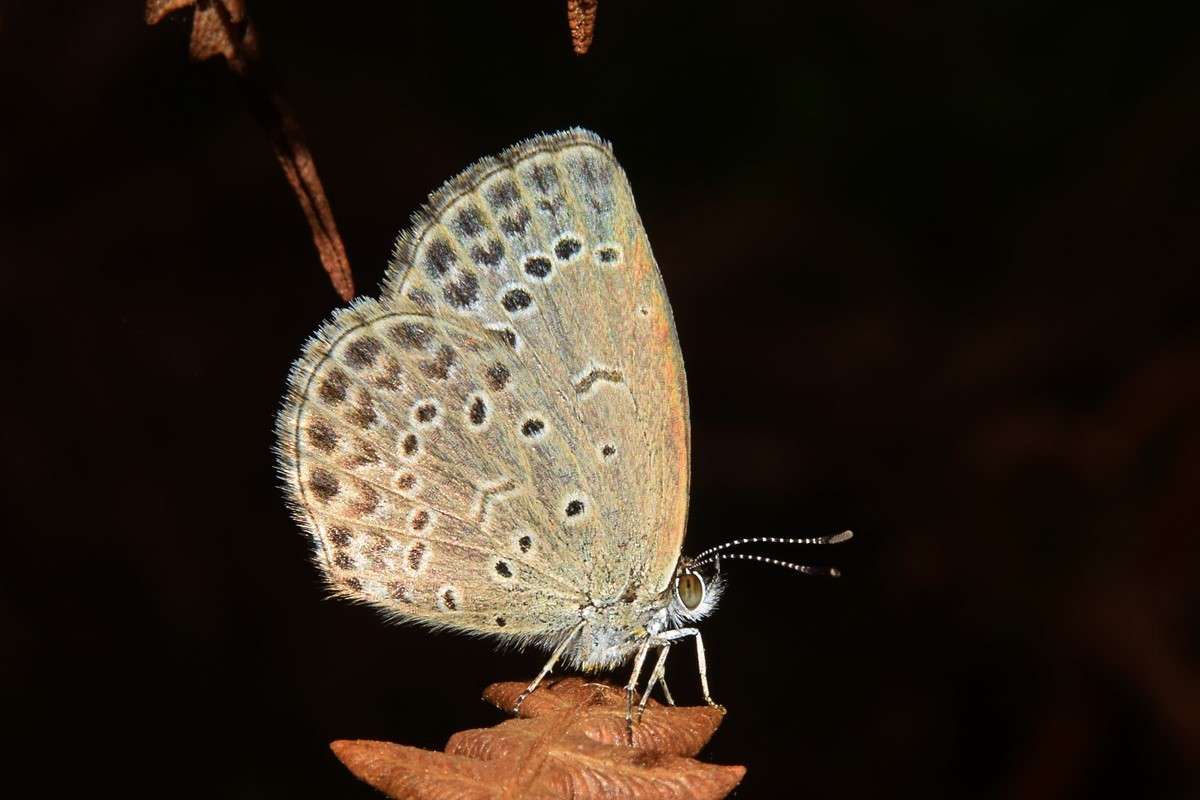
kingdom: Animalia
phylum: Arthropoda
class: Insecta
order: Lepidoptera
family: Lycaenidae
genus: Pseudozizeeria
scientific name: Pseudozizeeria maha
